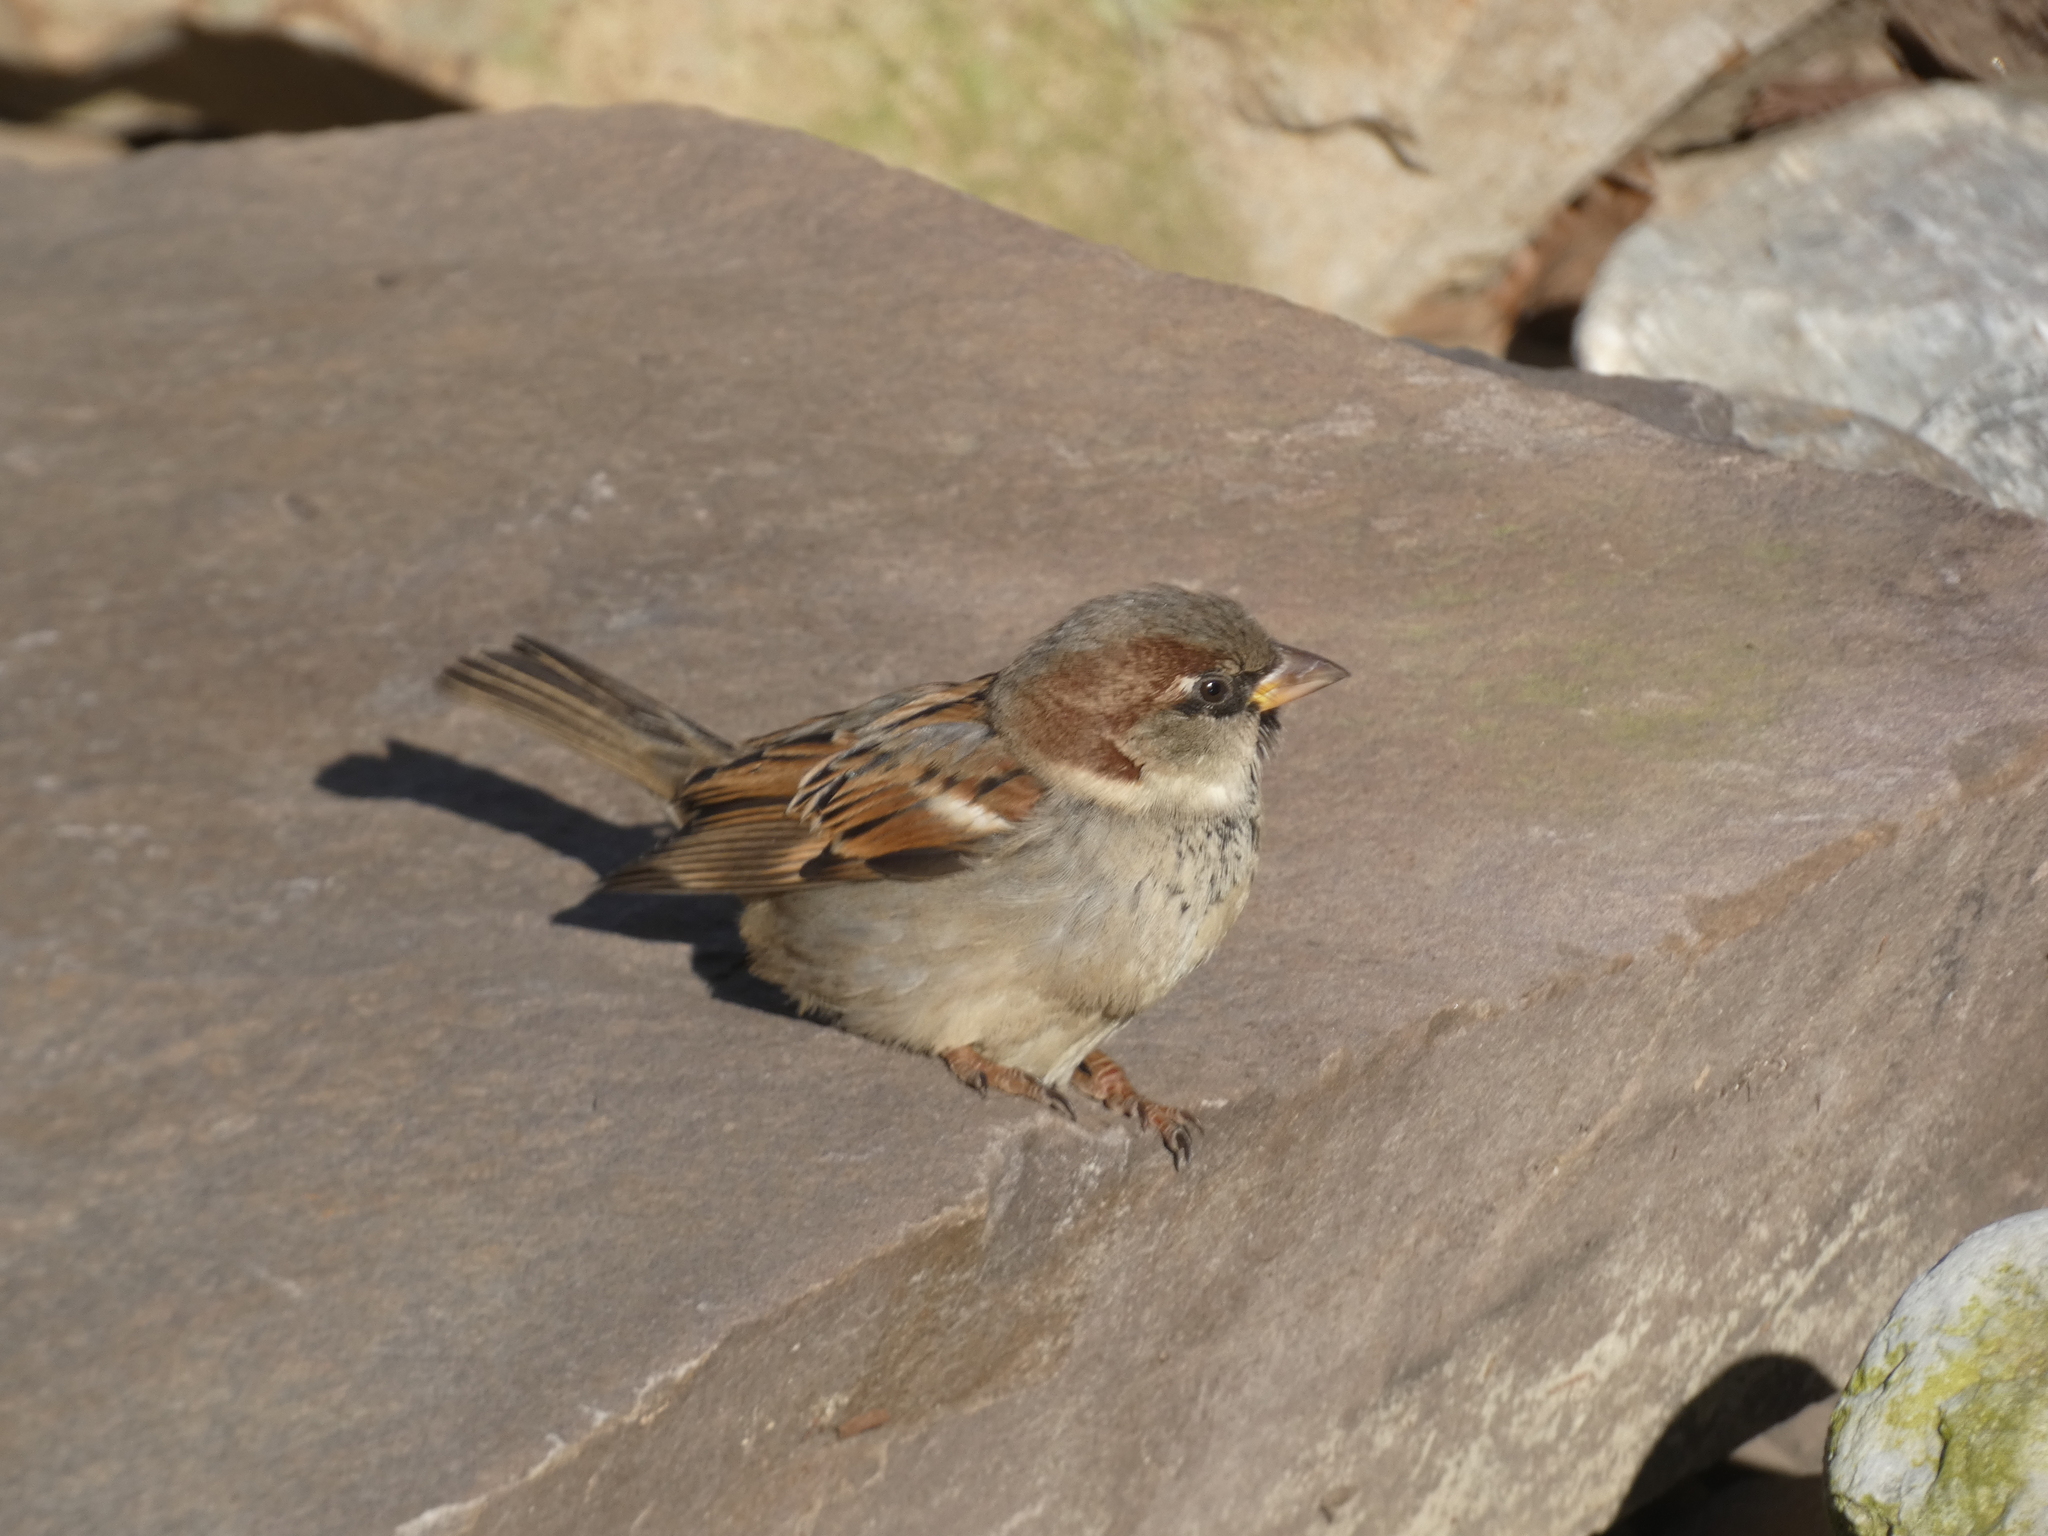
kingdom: Animalia
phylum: Chordata
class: Aves
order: Passeriformes
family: Passeridae
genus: Passer
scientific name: Passer domesticus
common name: House sparrow
